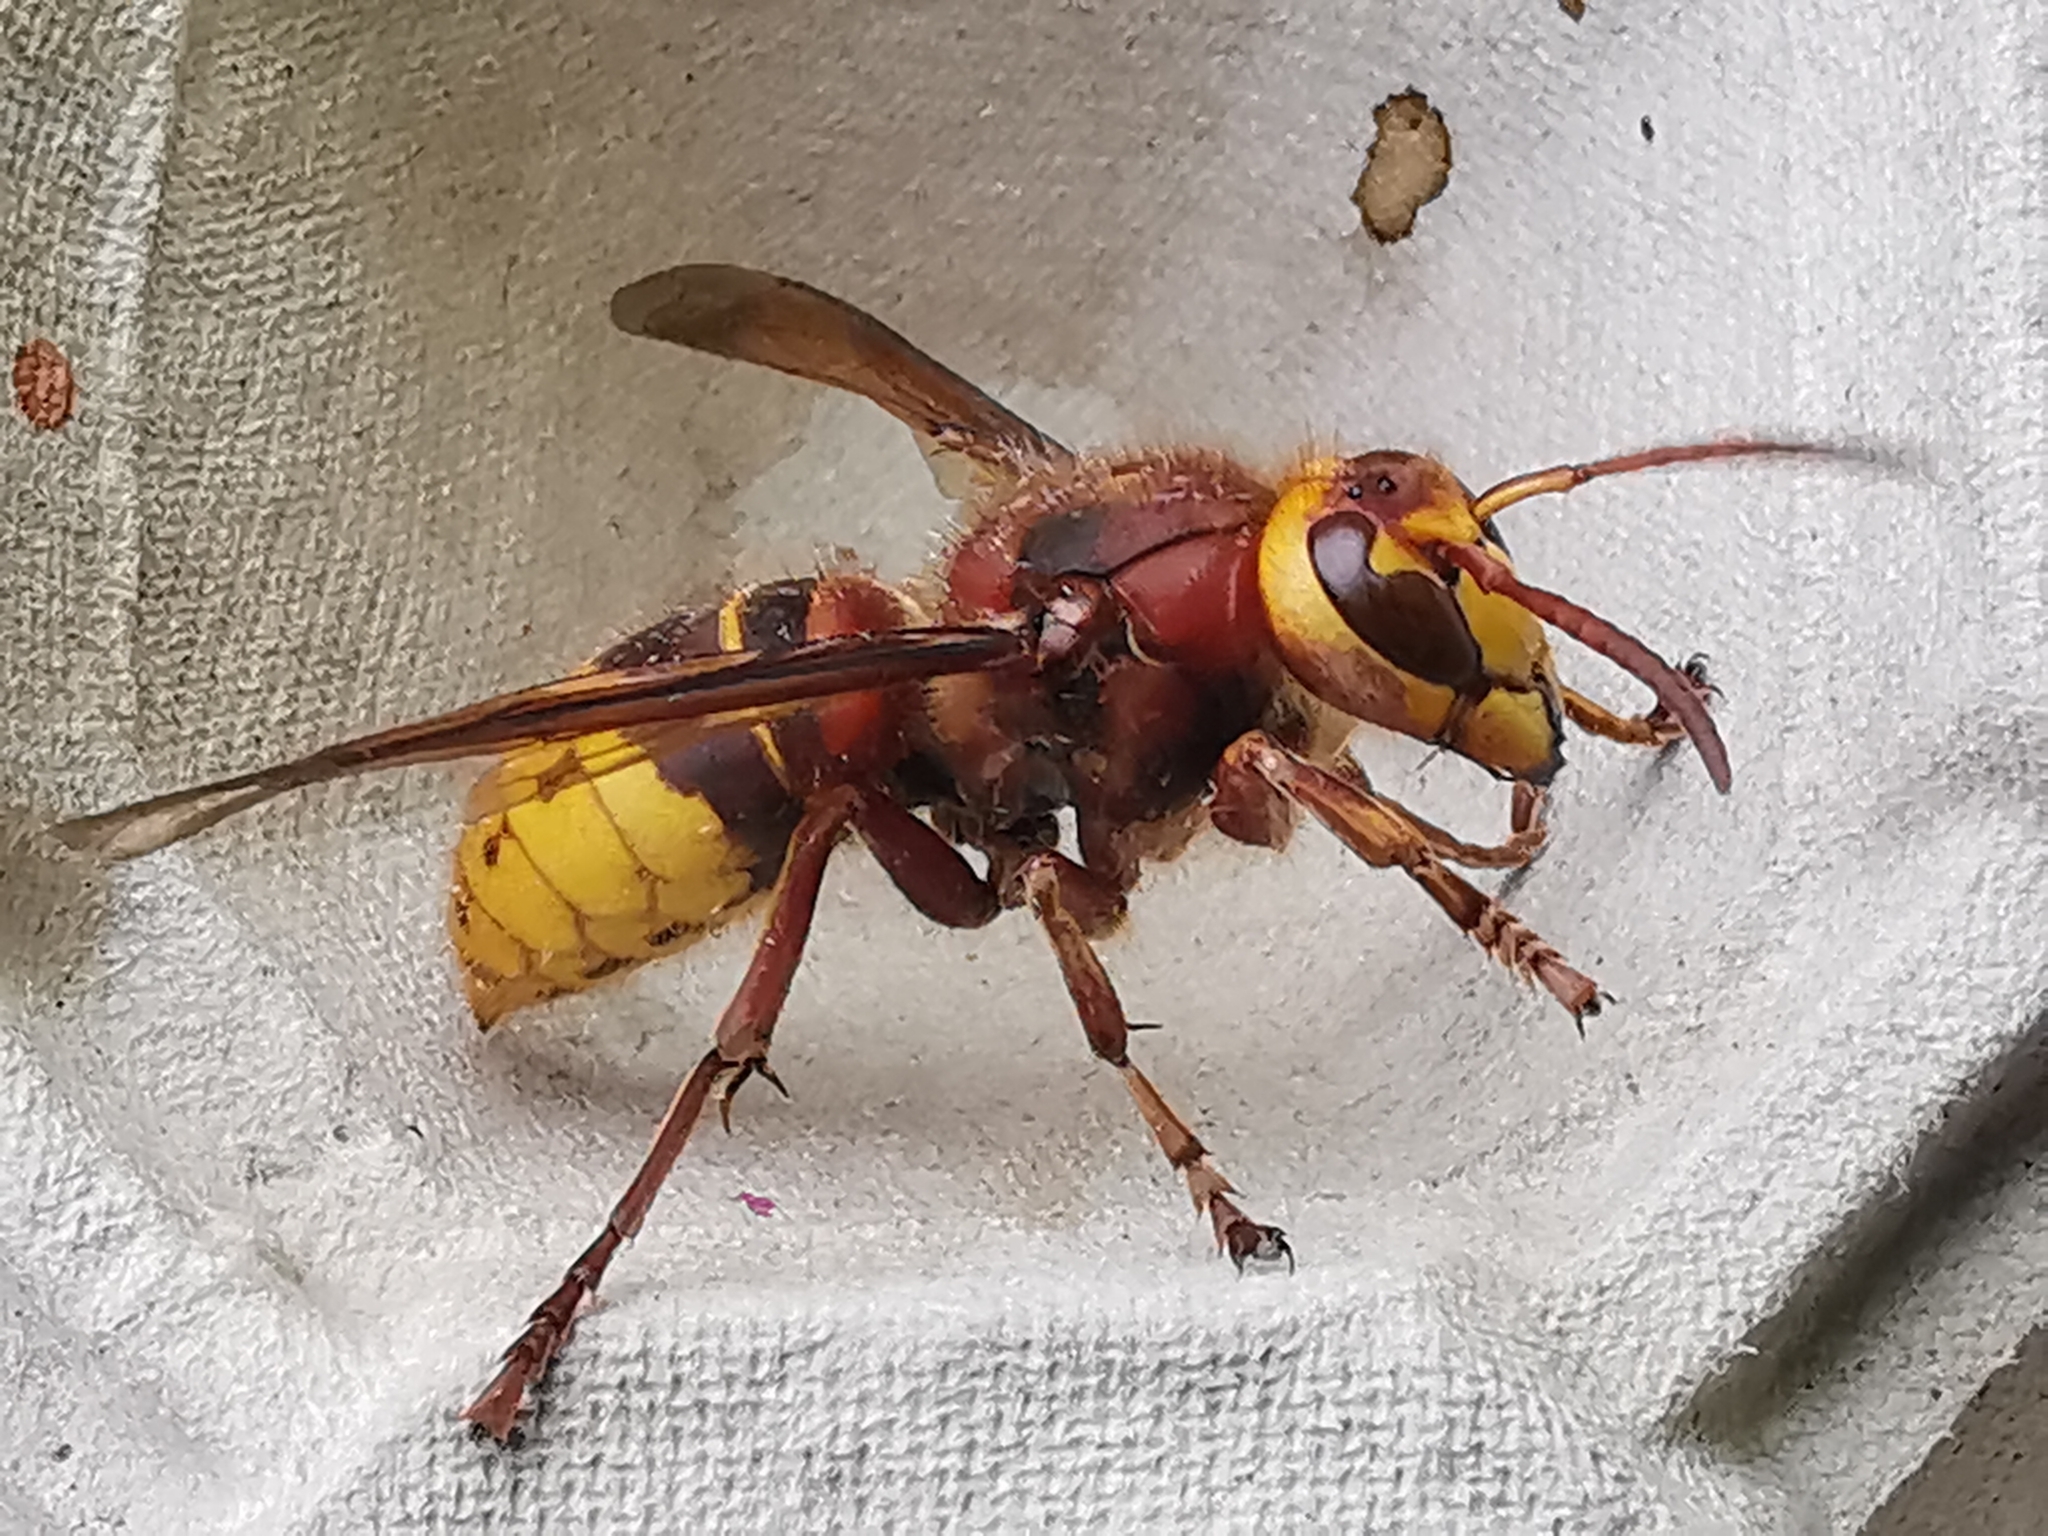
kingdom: Animalia
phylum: Arthropoda
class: Insecta
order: Hymenoptera
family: Vespidae
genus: Vespa
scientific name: Vespa crabro
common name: Hornet
